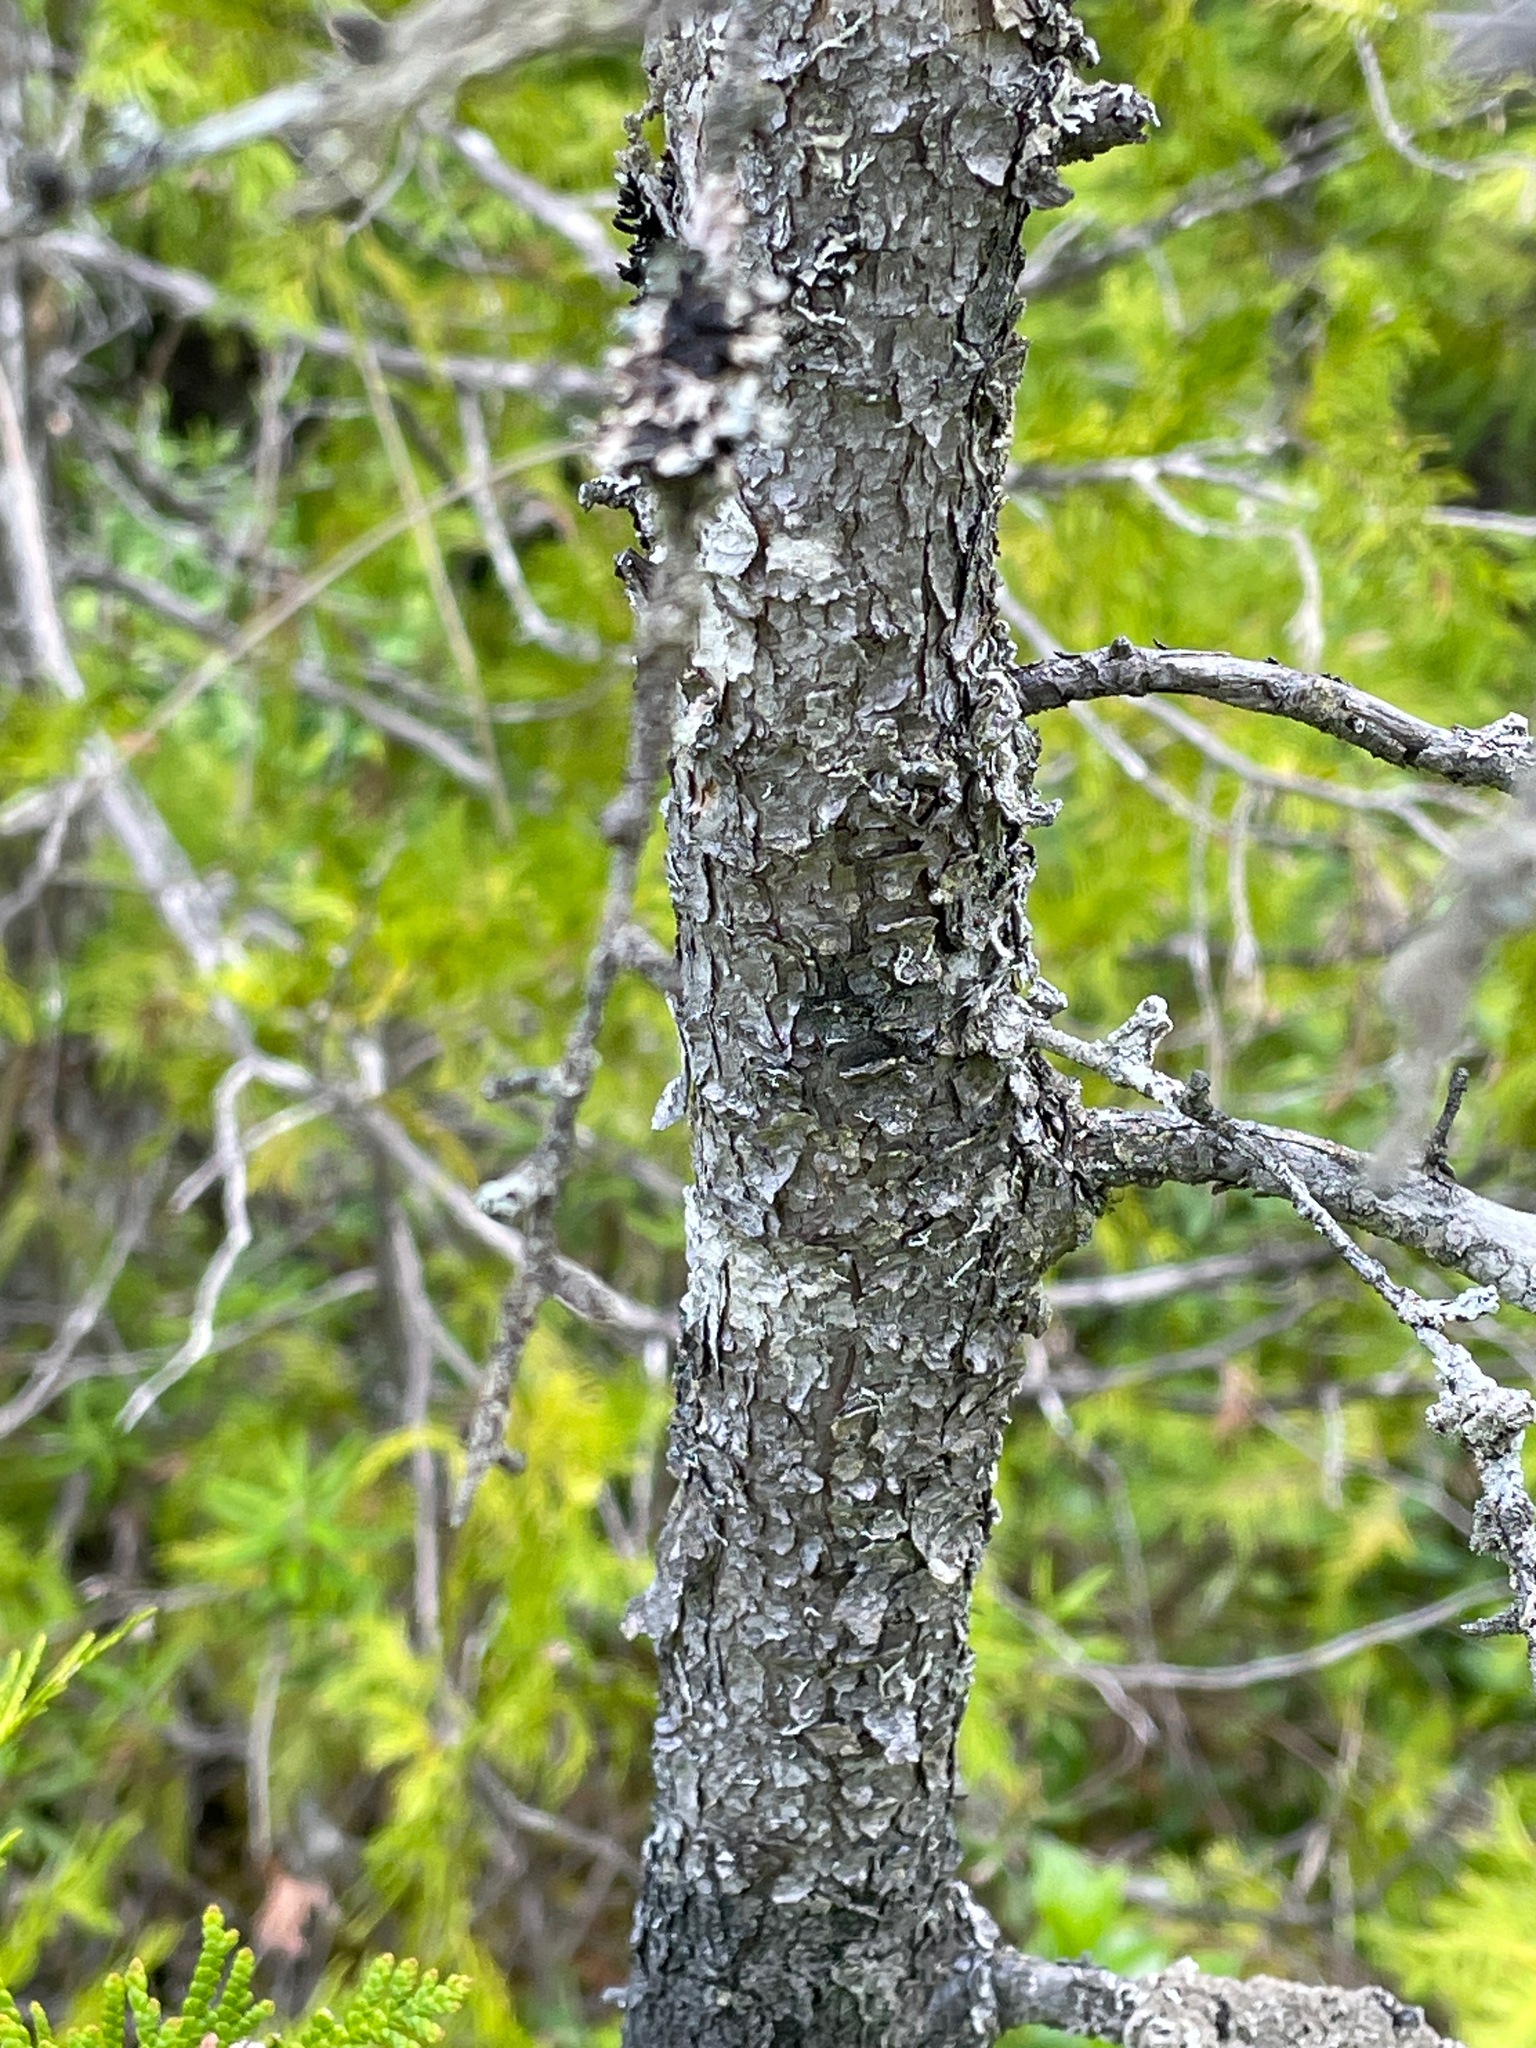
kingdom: Plantae
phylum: Tracheophyta
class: Pinopsida
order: Pinales
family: Pinaceae
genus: Larix
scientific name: Larix laricina
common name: American larch
